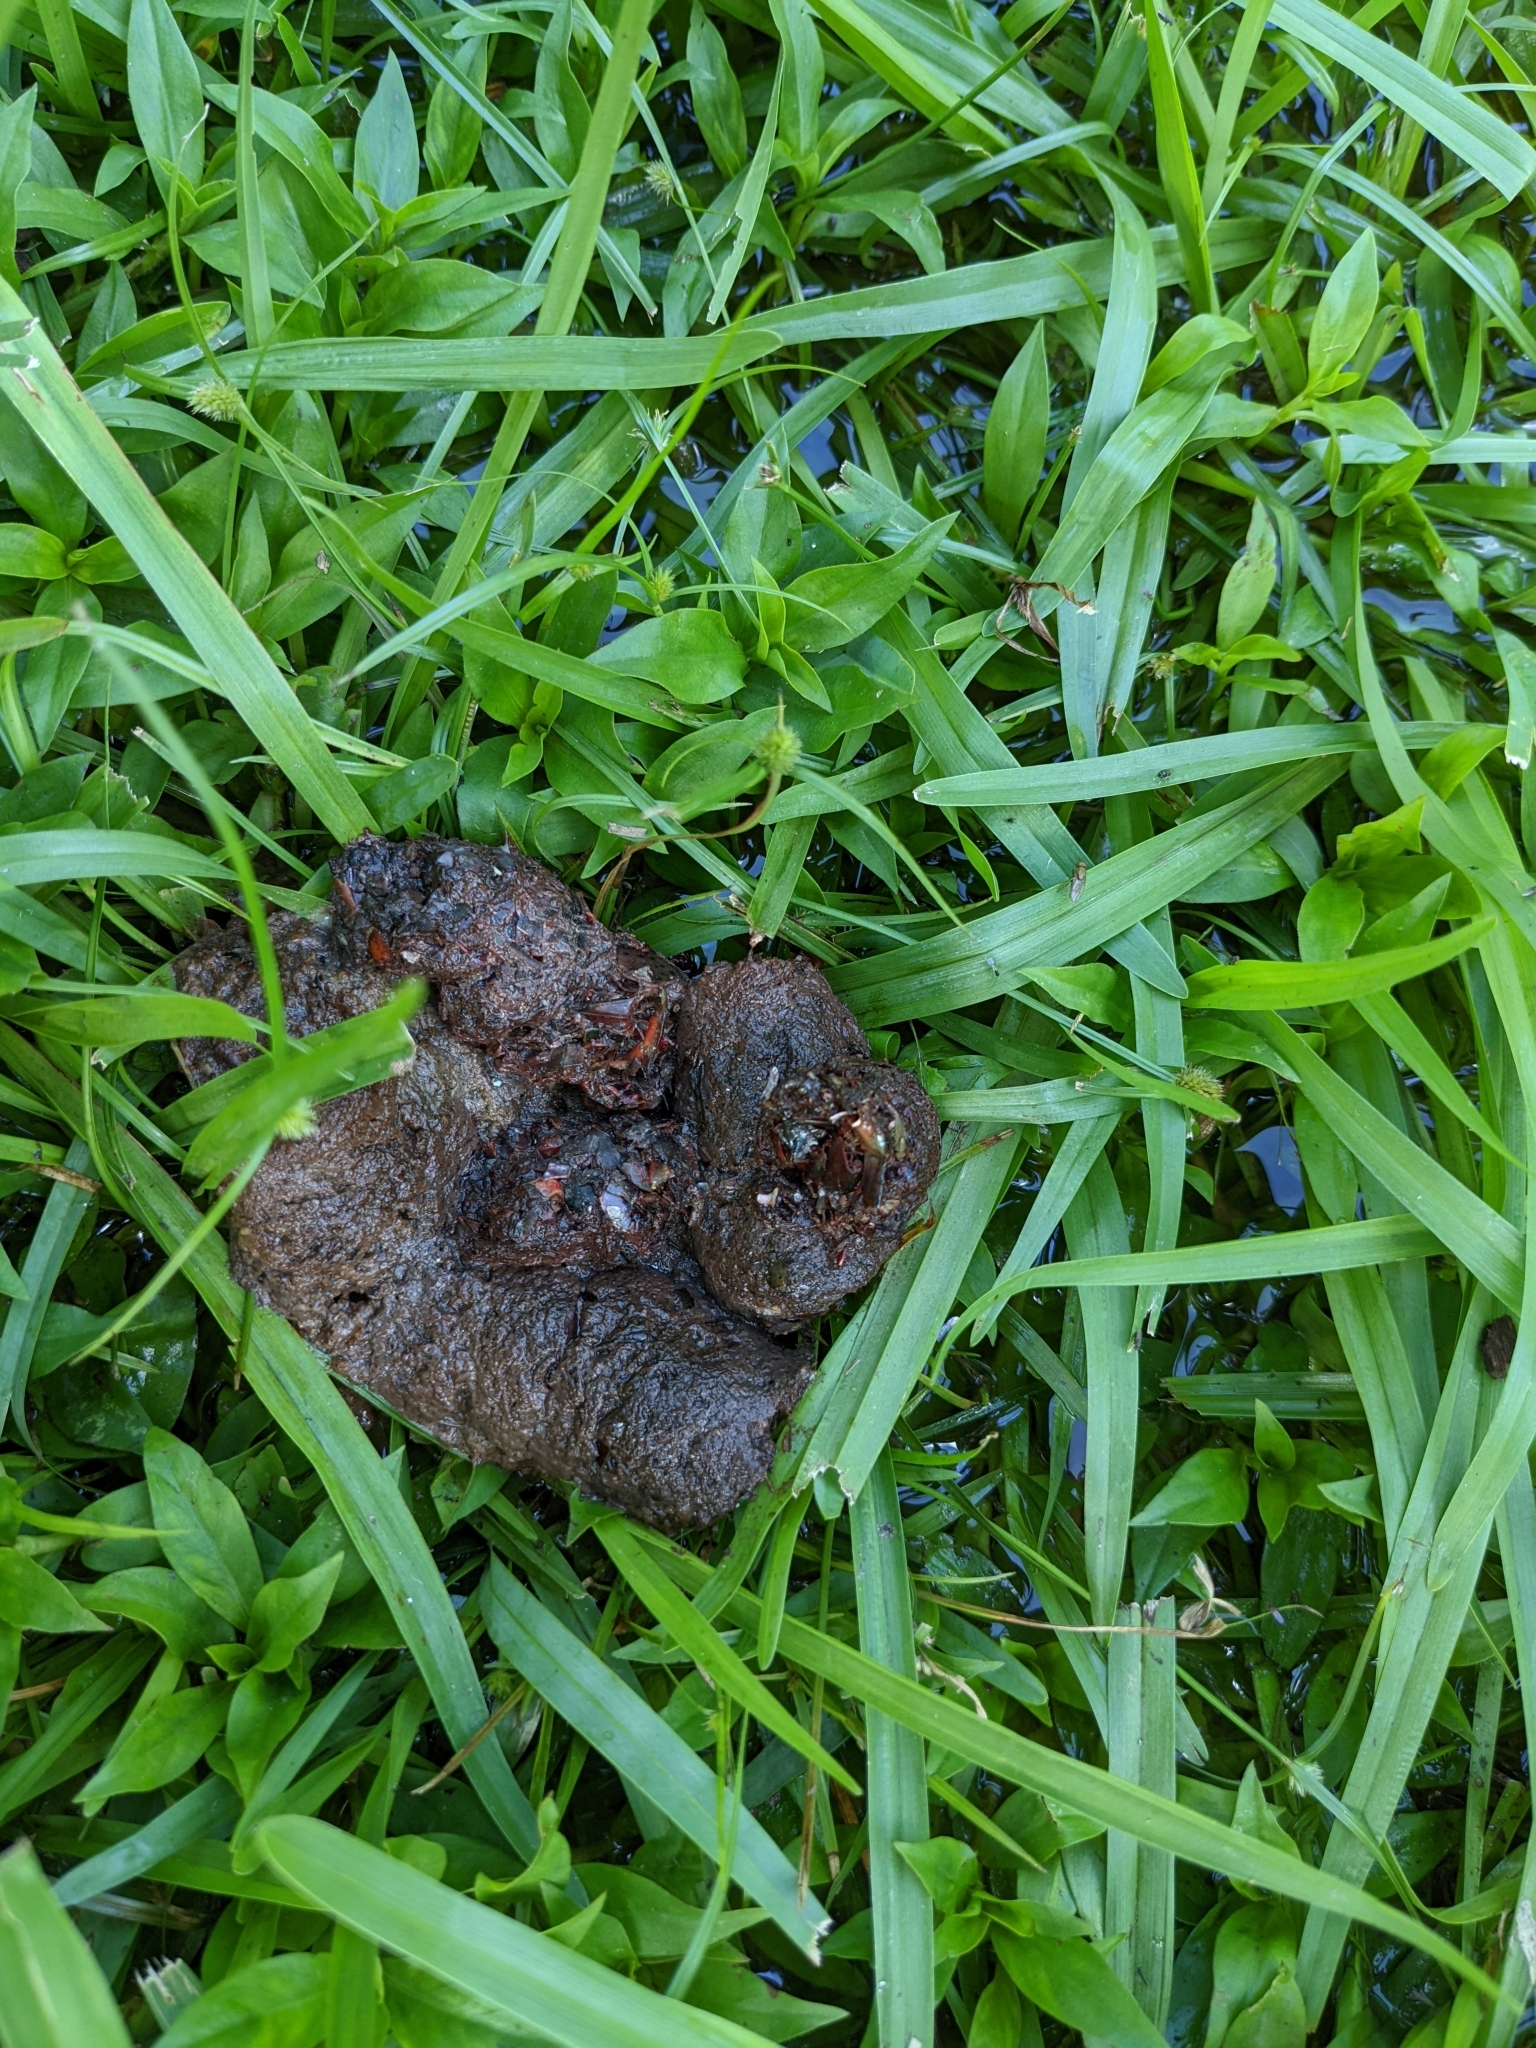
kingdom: Animalia
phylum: Chordata
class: Mammalia
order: Carnivora
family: Procyonidae
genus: Procyon
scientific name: Procyon lotor
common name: Raccoon
